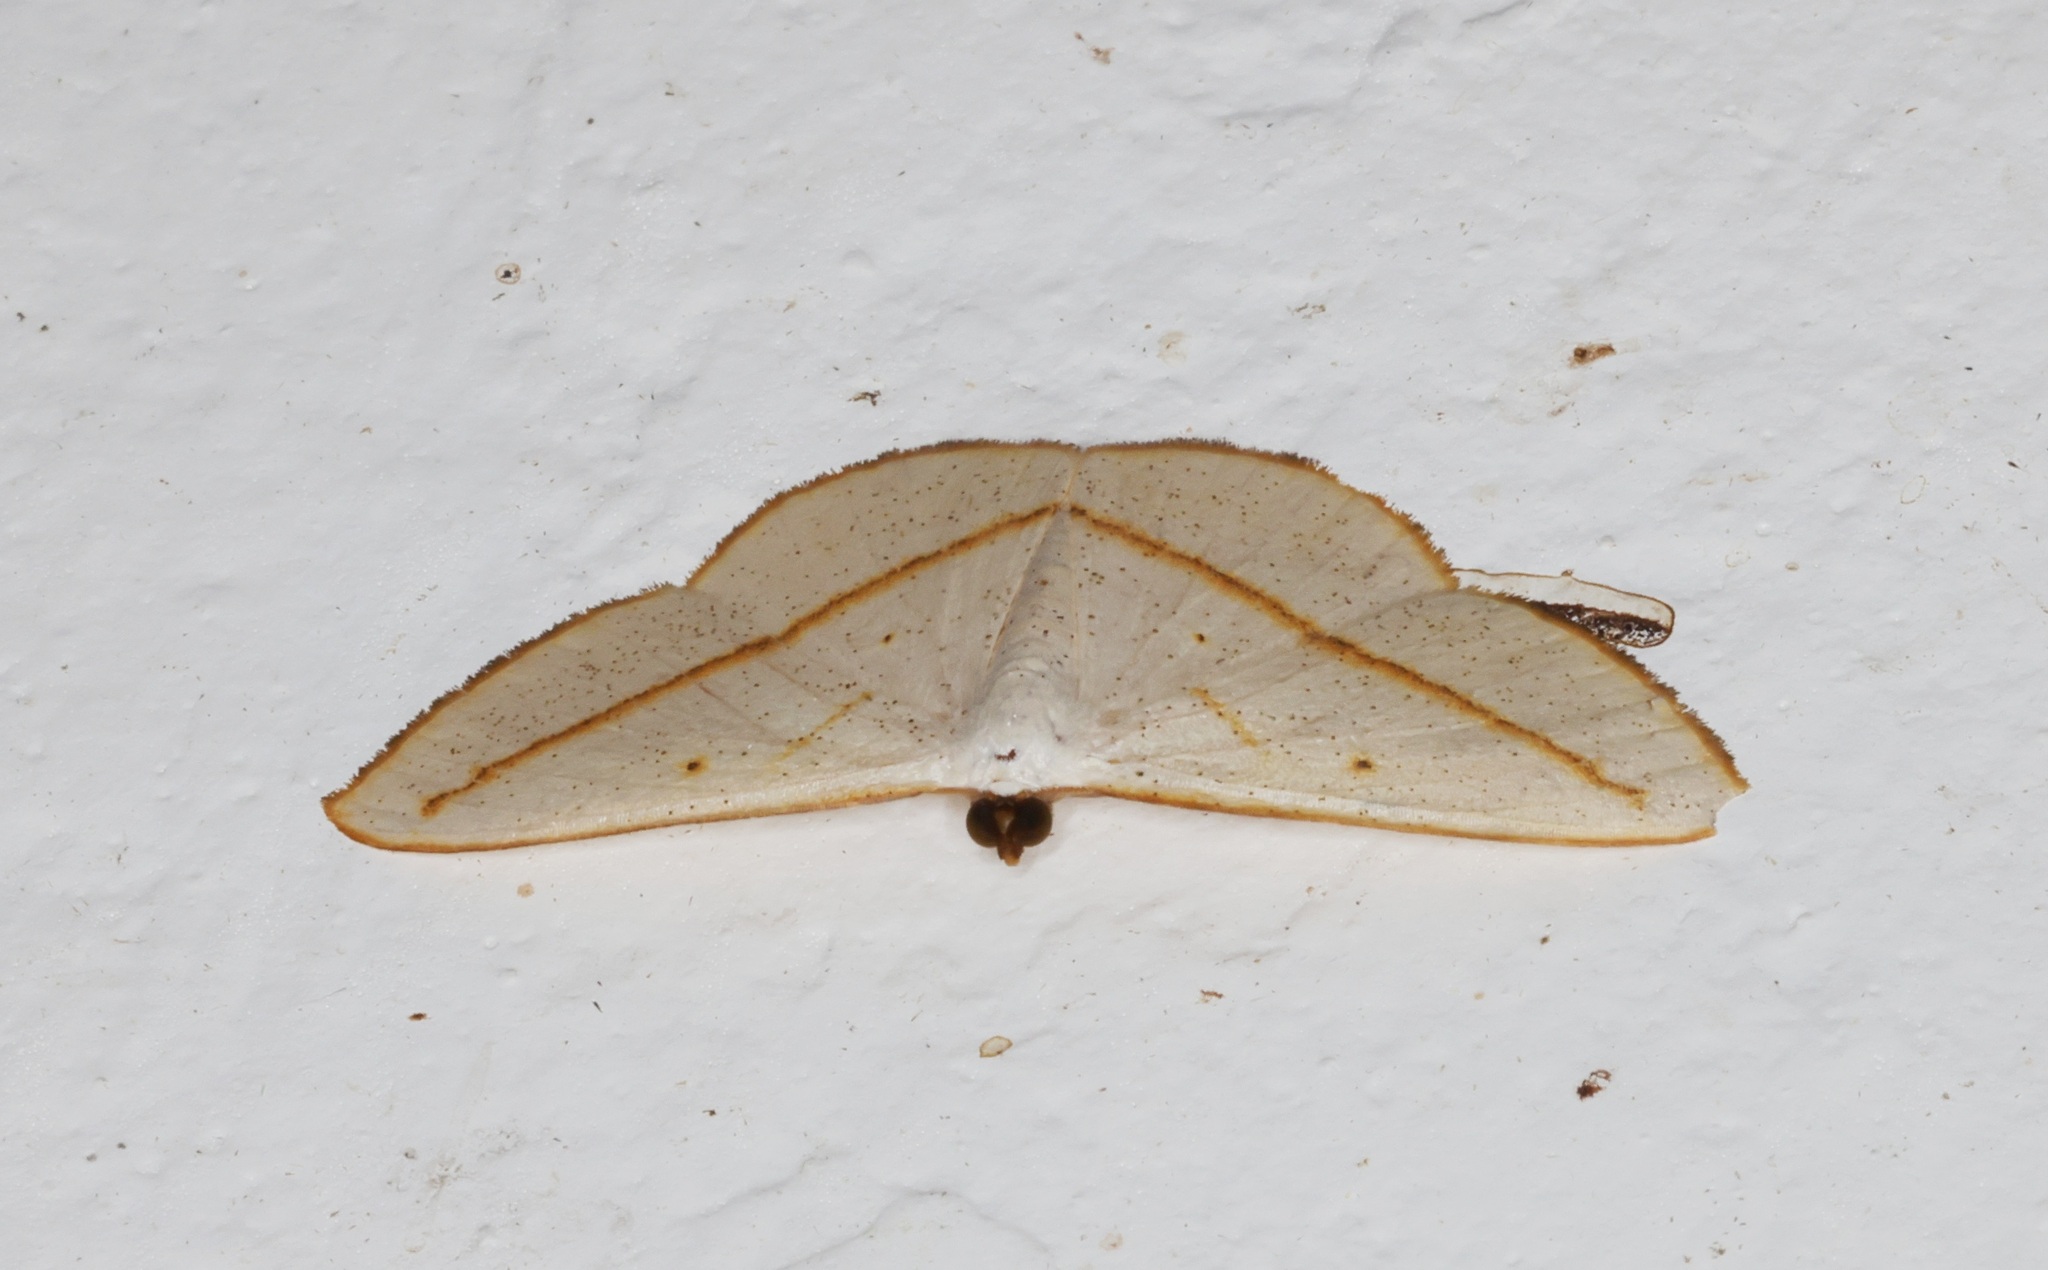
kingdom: Animalia
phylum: Arthropoda
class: Insecta
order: Lepidoptera
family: Geometridae
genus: Lomographa
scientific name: Lomographa inamata
